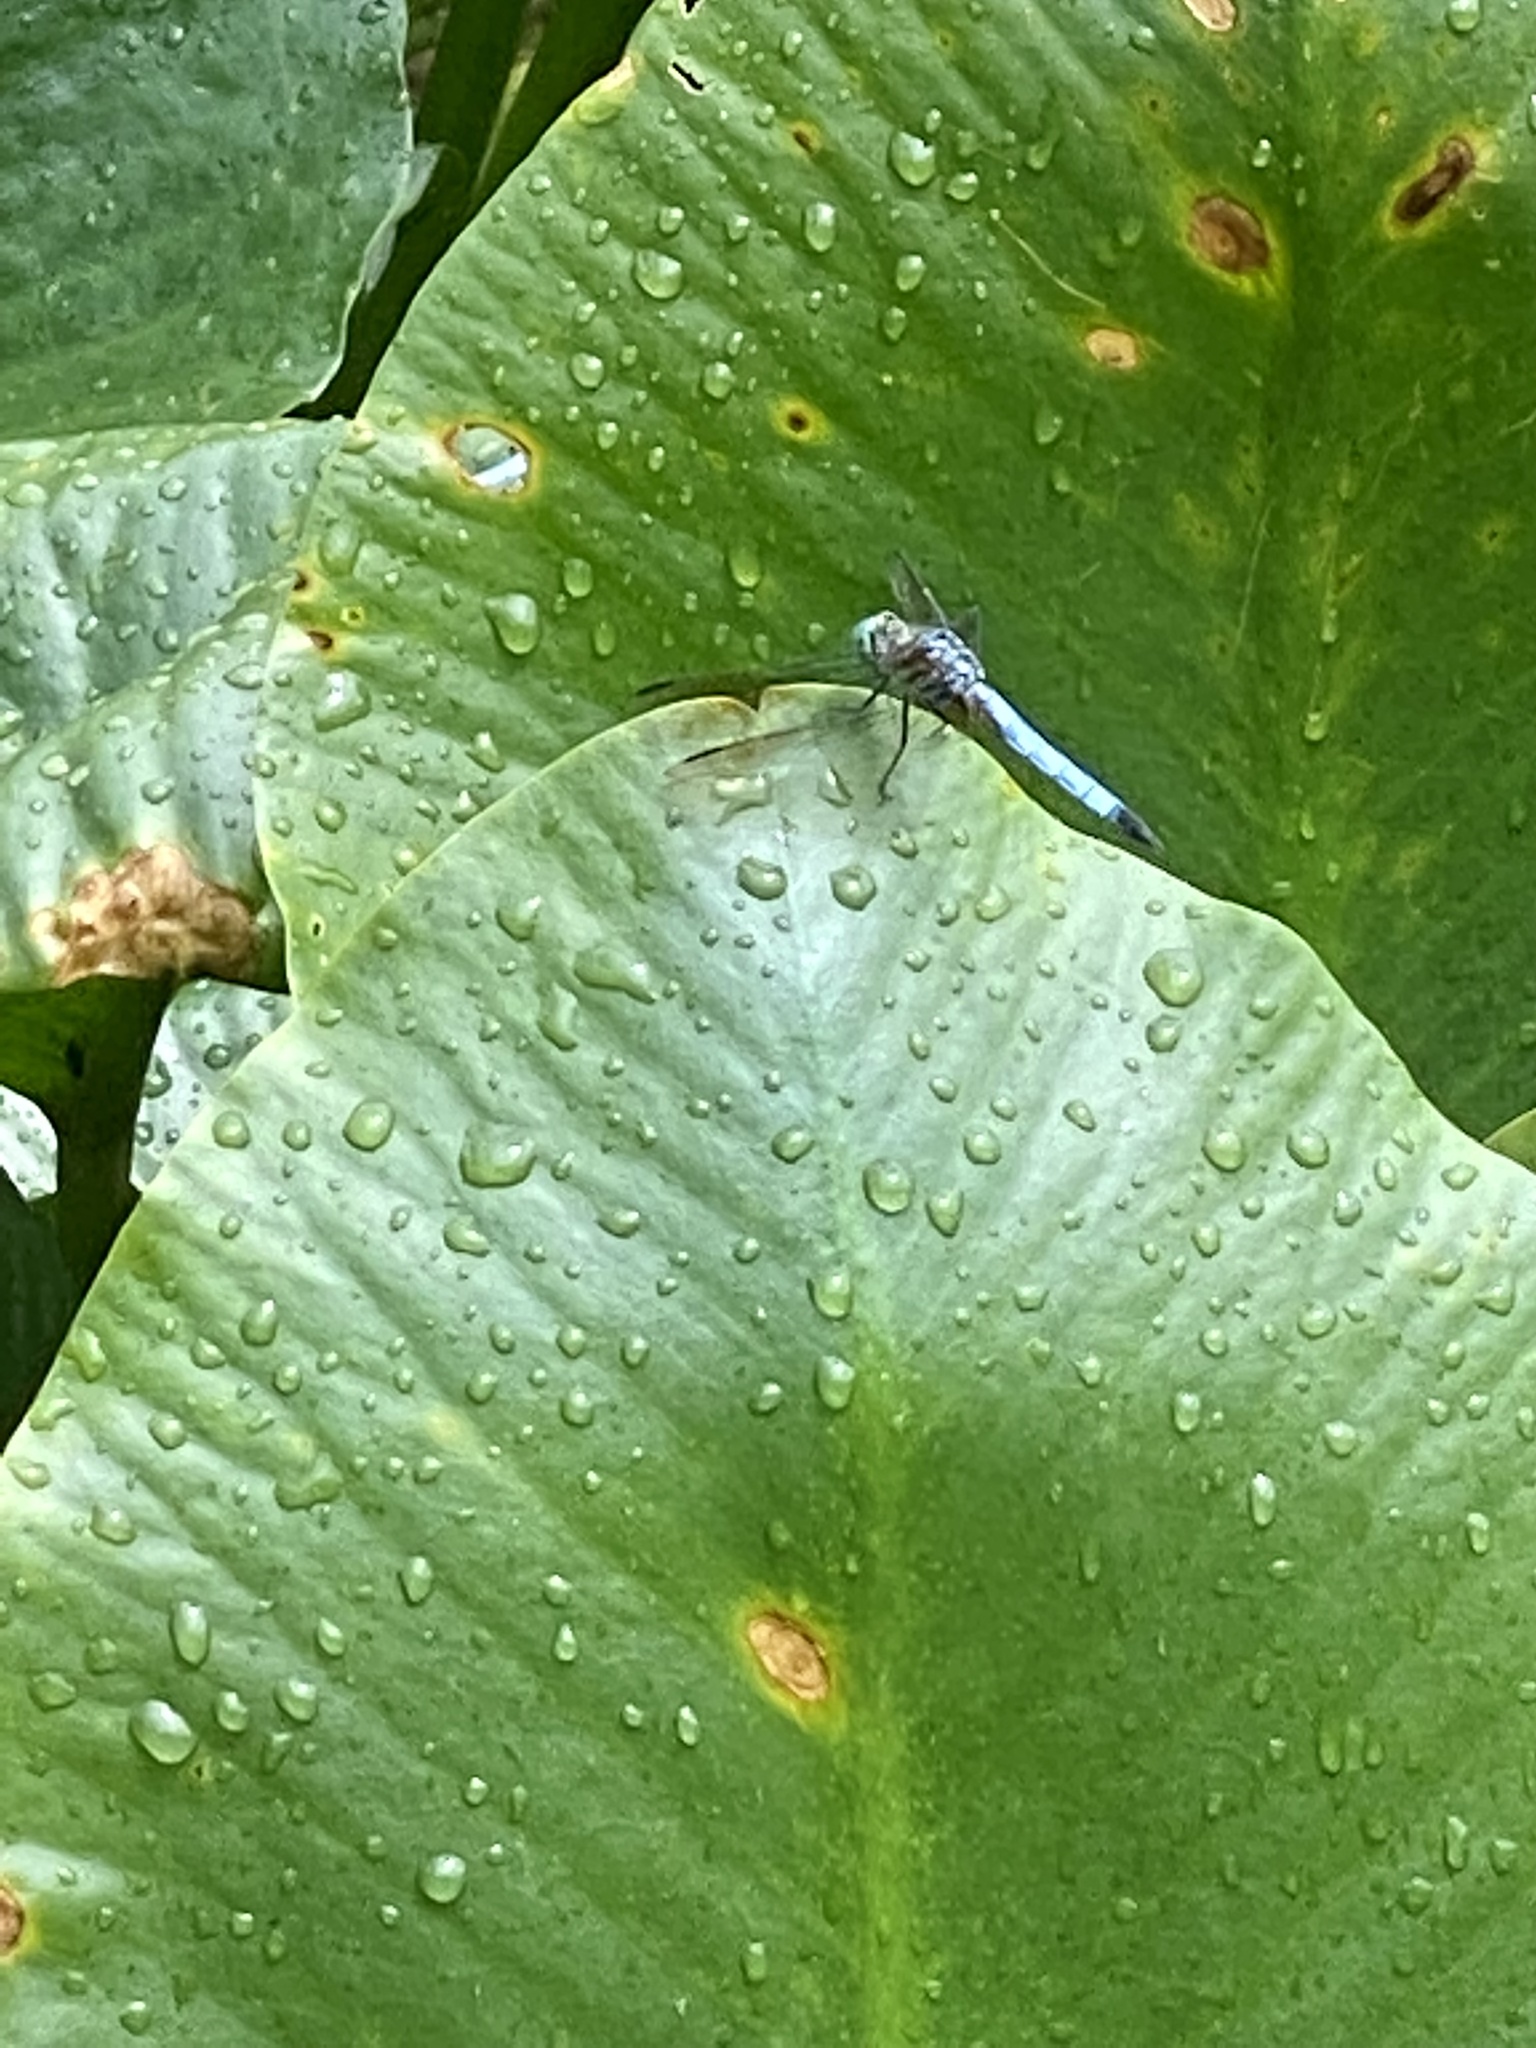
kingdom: Animalia
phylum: Arthropoda
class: Insecta
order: Odonata
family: Libellulidae
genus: Pachydiplax
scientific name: Pachydiplax longipennis
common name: Blue dasher
